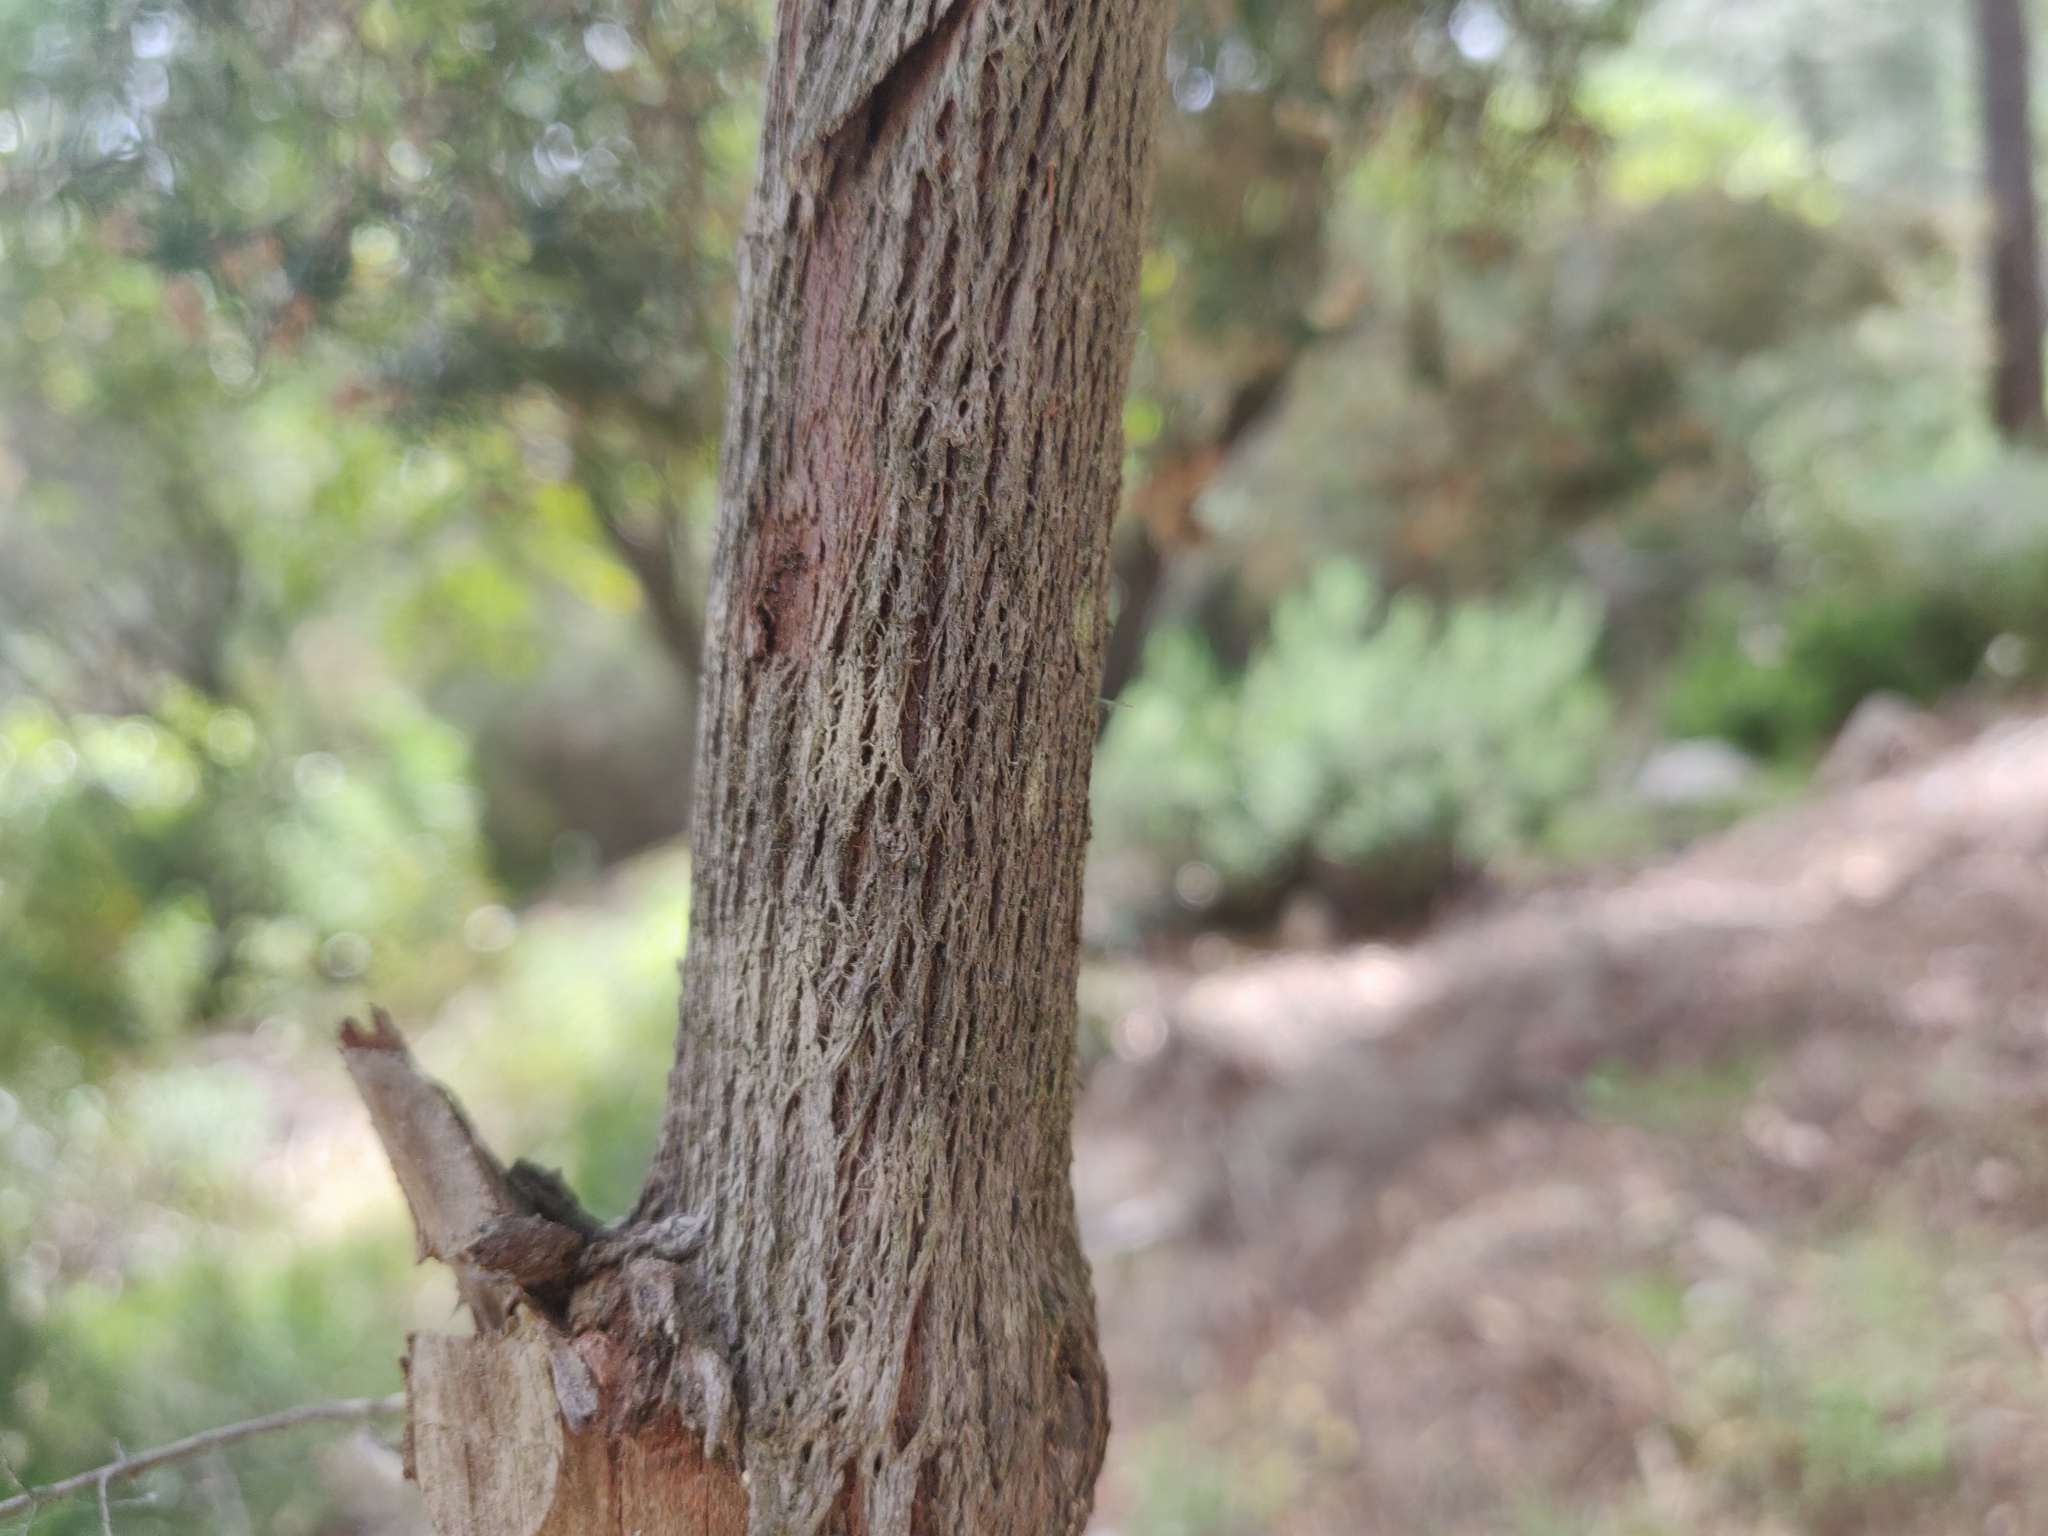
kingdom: Plantae
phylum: Tracheophyta
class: Magnoliopsida
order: Ericales
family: Ericaceae
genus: Erica
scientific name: Erica arborea
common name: Tree heath
